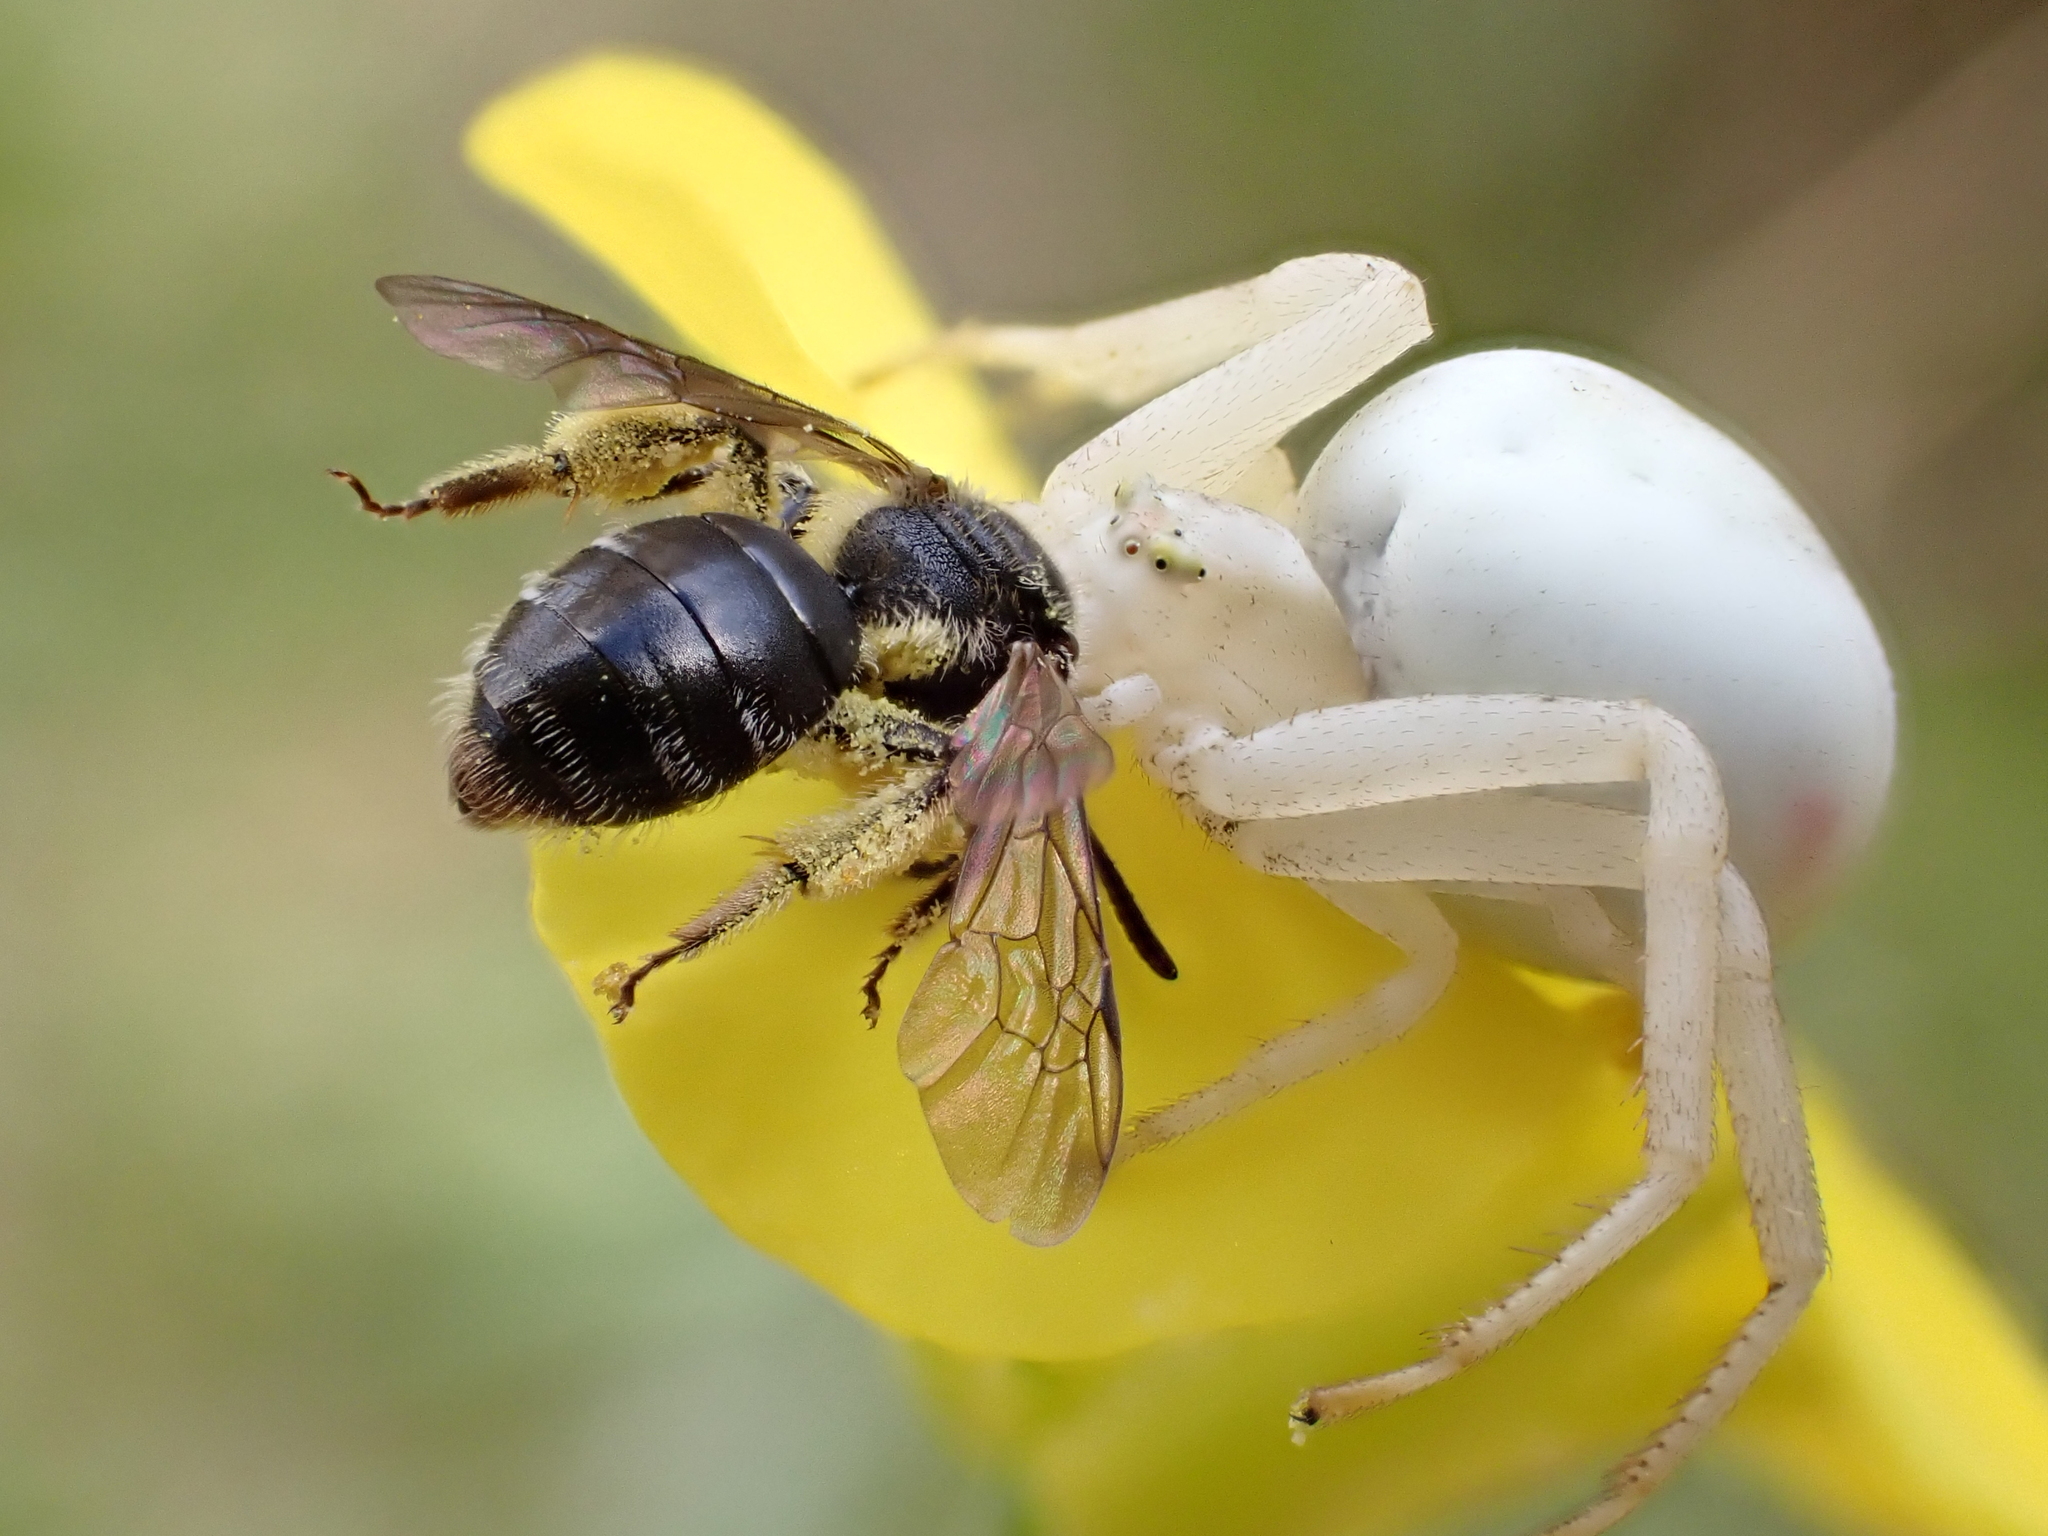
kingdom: Animalia
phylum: Arthropoda
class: Arachnida
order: Araneae
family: Thomisidae
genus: Misumena
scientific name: Misumena vatia
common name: Goldenrod crab spider
